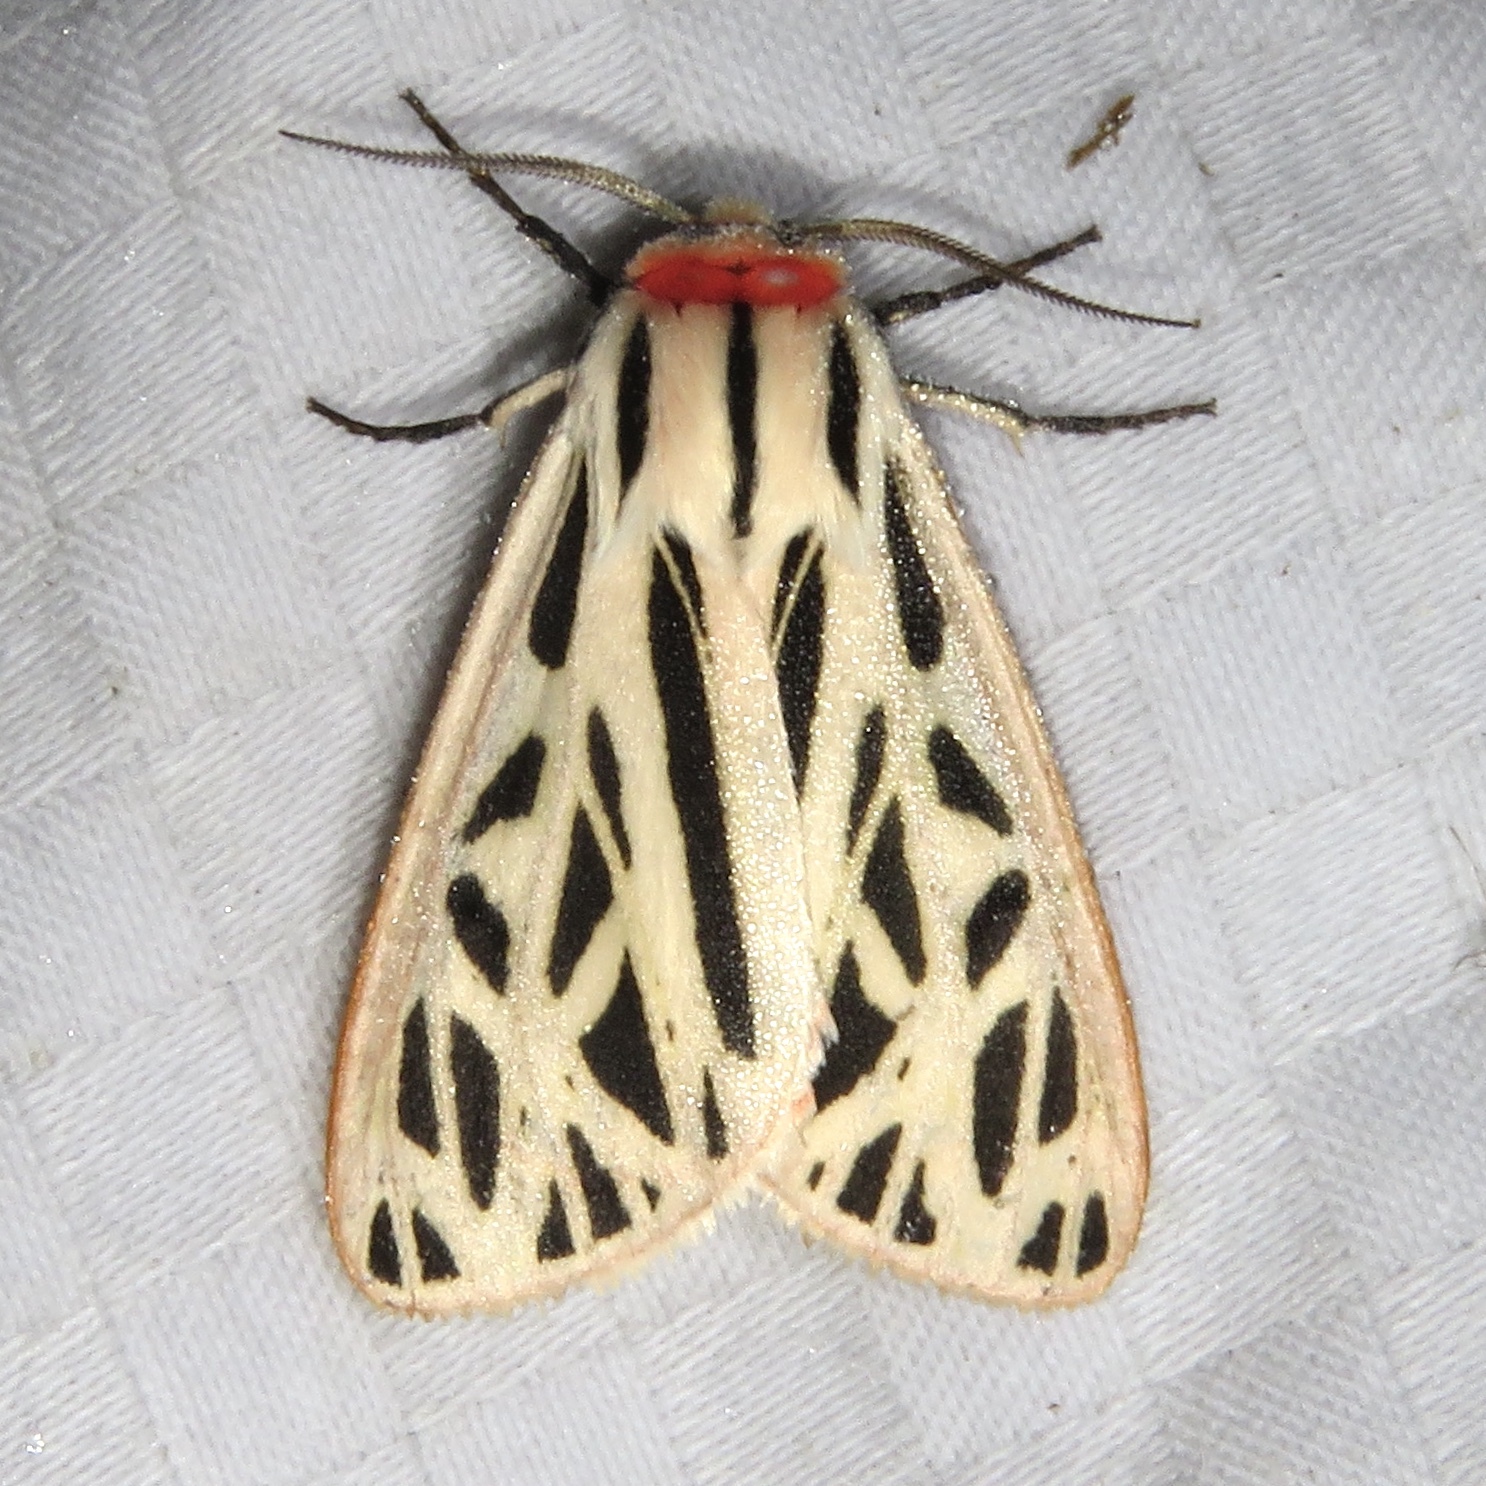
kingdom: Animalia
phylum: Arthropoda
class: Insecta
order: Lepidoptera
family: Erebidae
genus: Apantesis
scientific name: Apantesis arge
